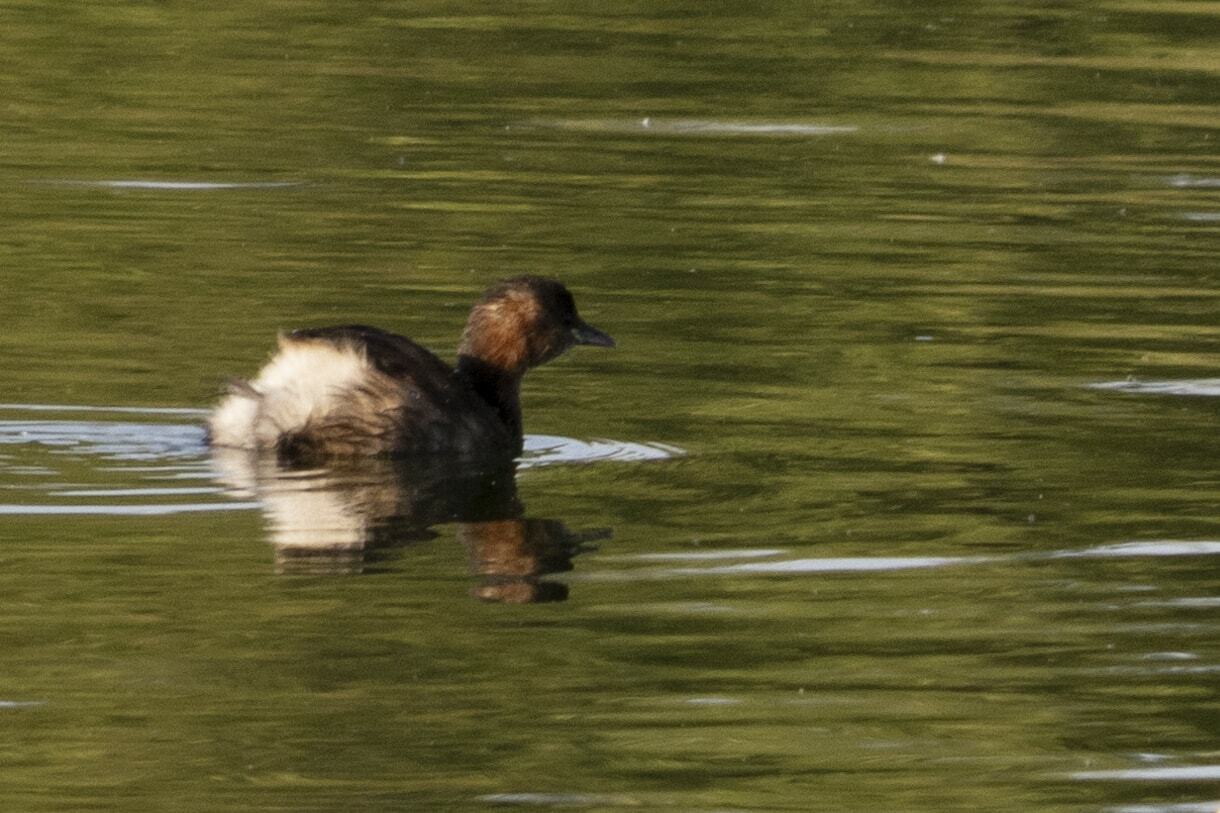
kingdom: Animalia
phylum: Chordata
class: Aves
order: Podicipediformes
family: Podicipedidae
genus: Tachybaptus
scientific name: Tachybaptus ruficollis
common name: Little grebe
